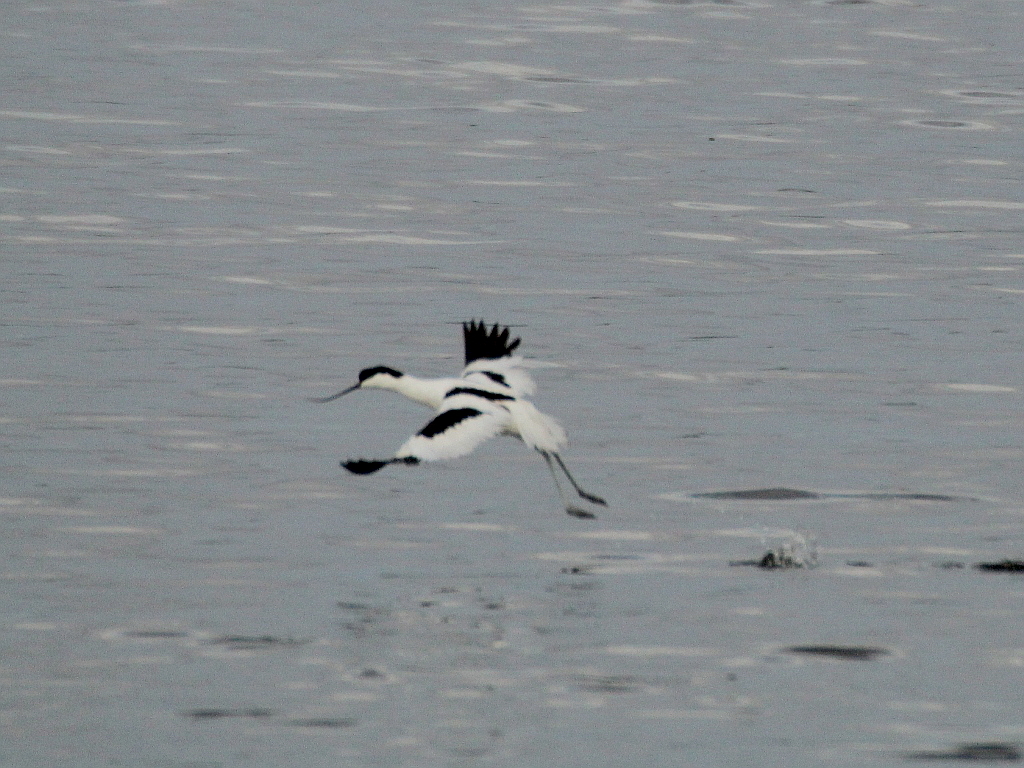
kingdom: Animalia
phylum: Chordata
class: Aves
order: Charadriiformes
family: Recurvirostridae
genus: Recurvirostra
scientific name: Recurvirostra avosetta
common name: Pied avocet
